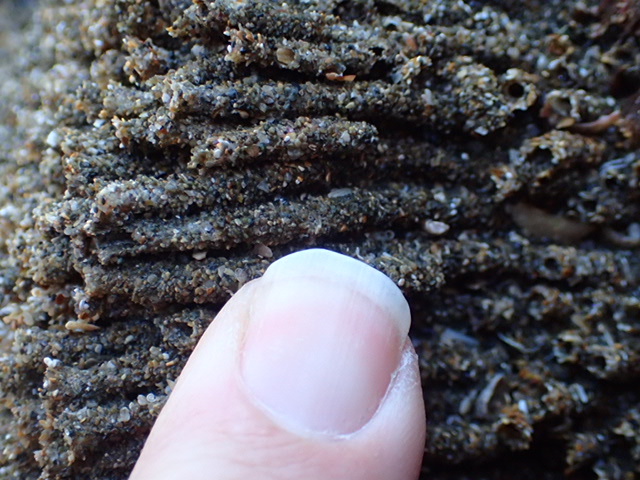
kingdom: Animalia
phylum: Annelida
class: Polychaeta
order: Sabellida
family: Sabellariidae
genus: Neosabellaria
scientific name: Neosabellaria kaiparaensis
